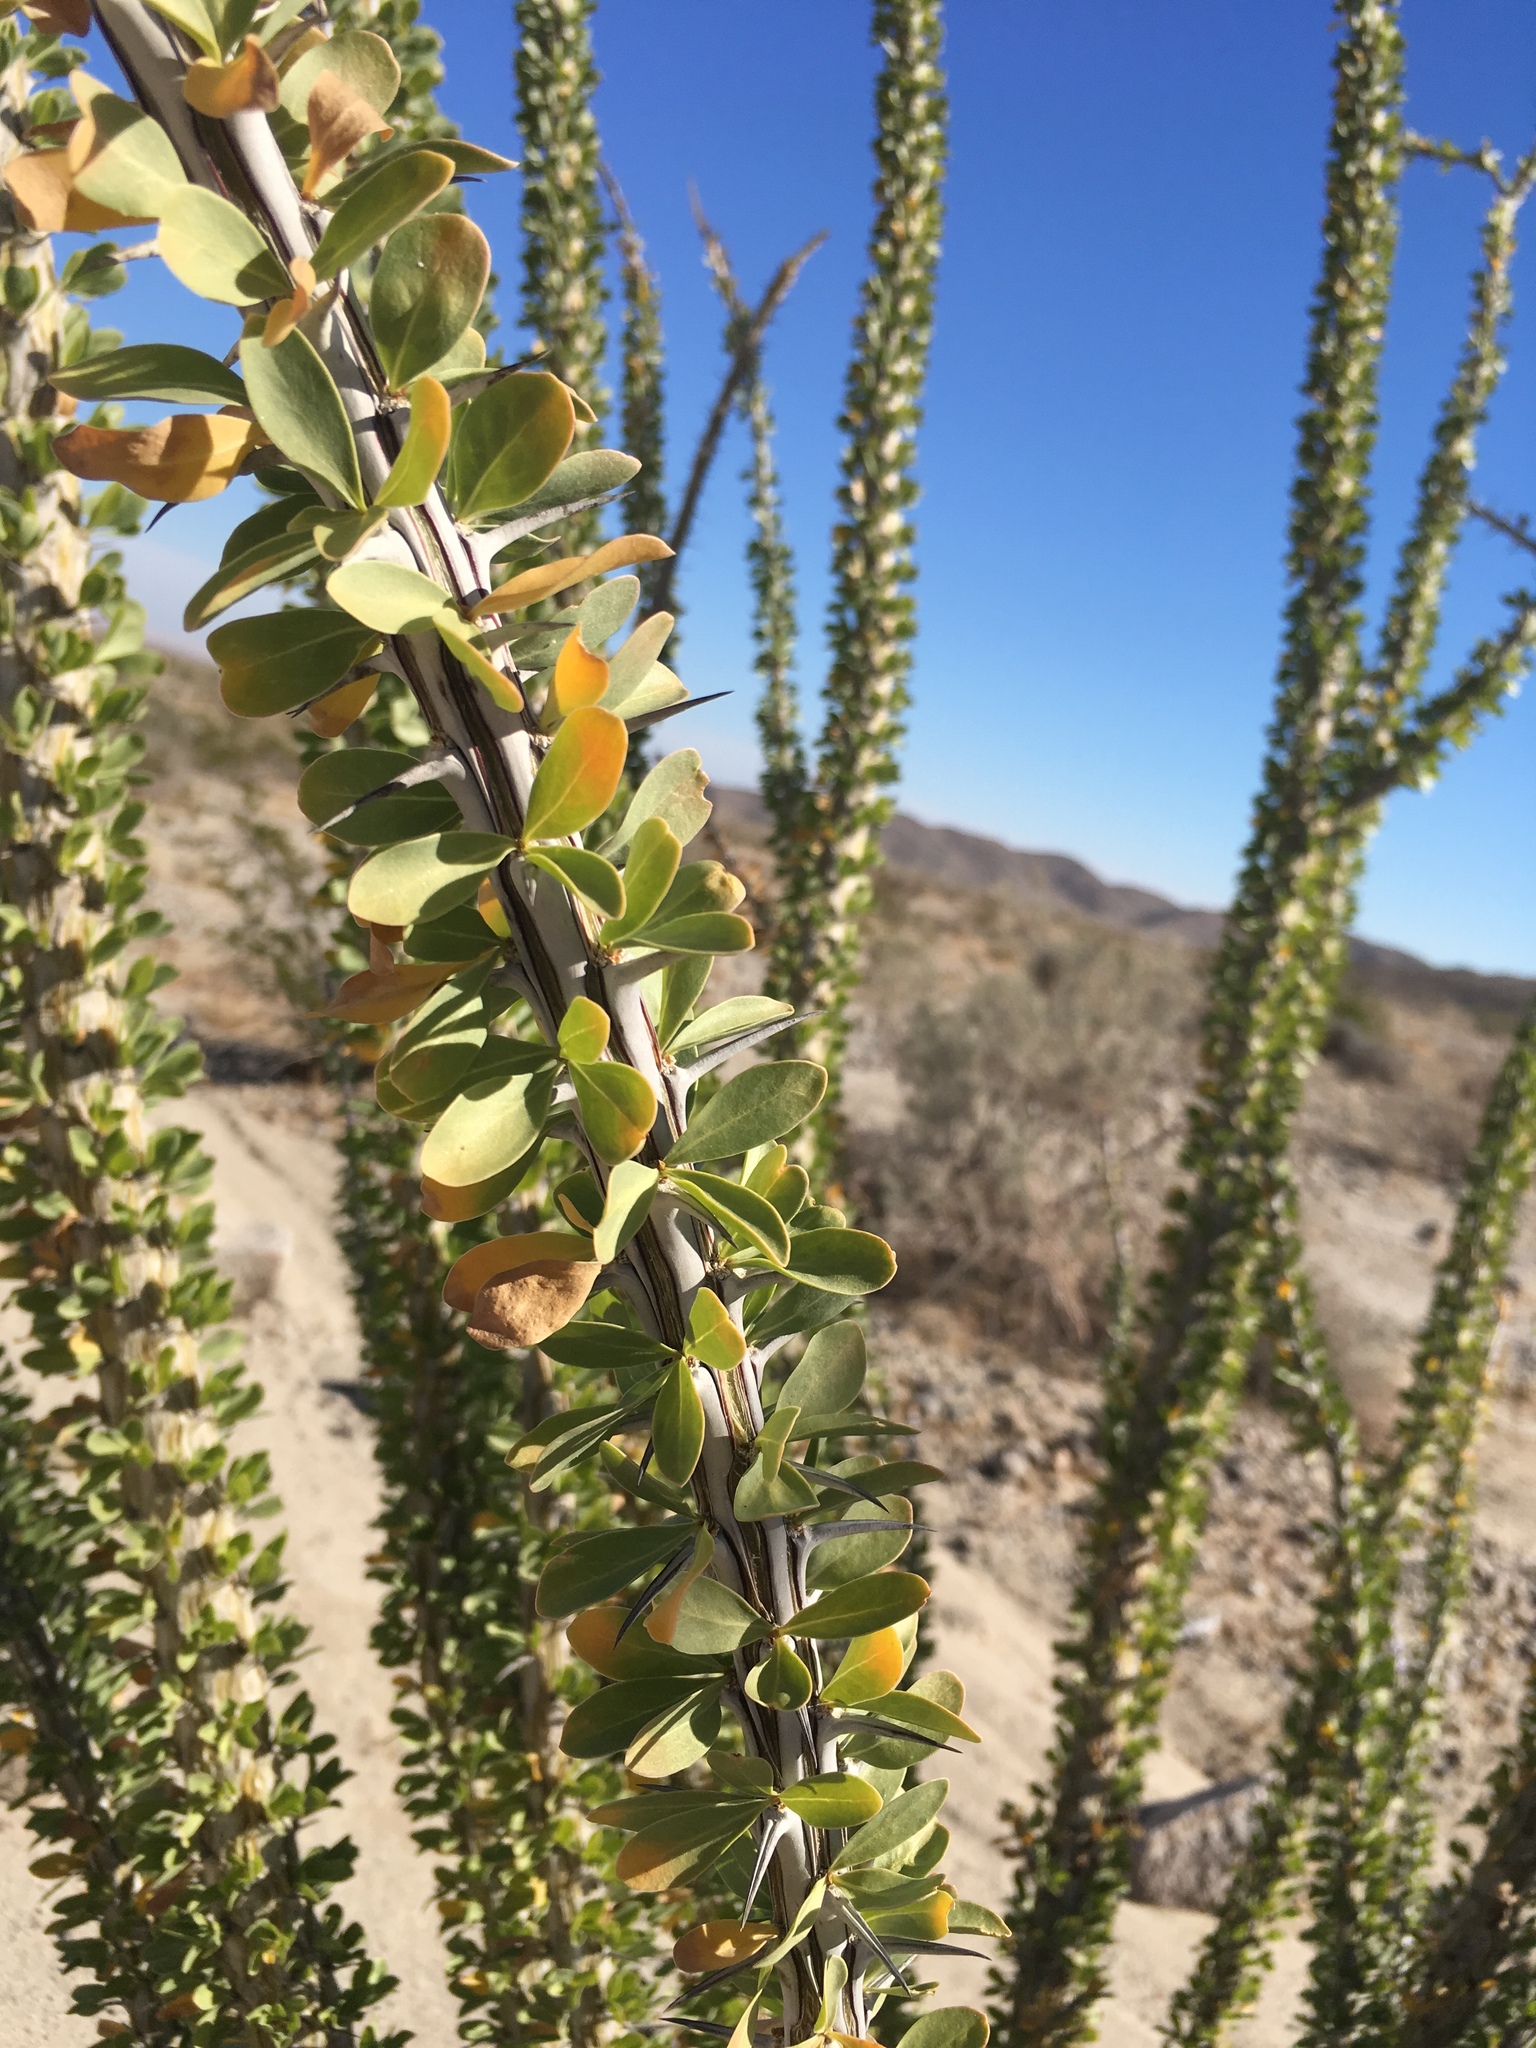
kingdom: Plantae
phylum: Tracheophyta
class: Magnoliopsida
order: Ericales
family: Fouquieriaceae
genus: Fouquieria
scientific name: Fouquieria splendens
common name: Vine-cactus
